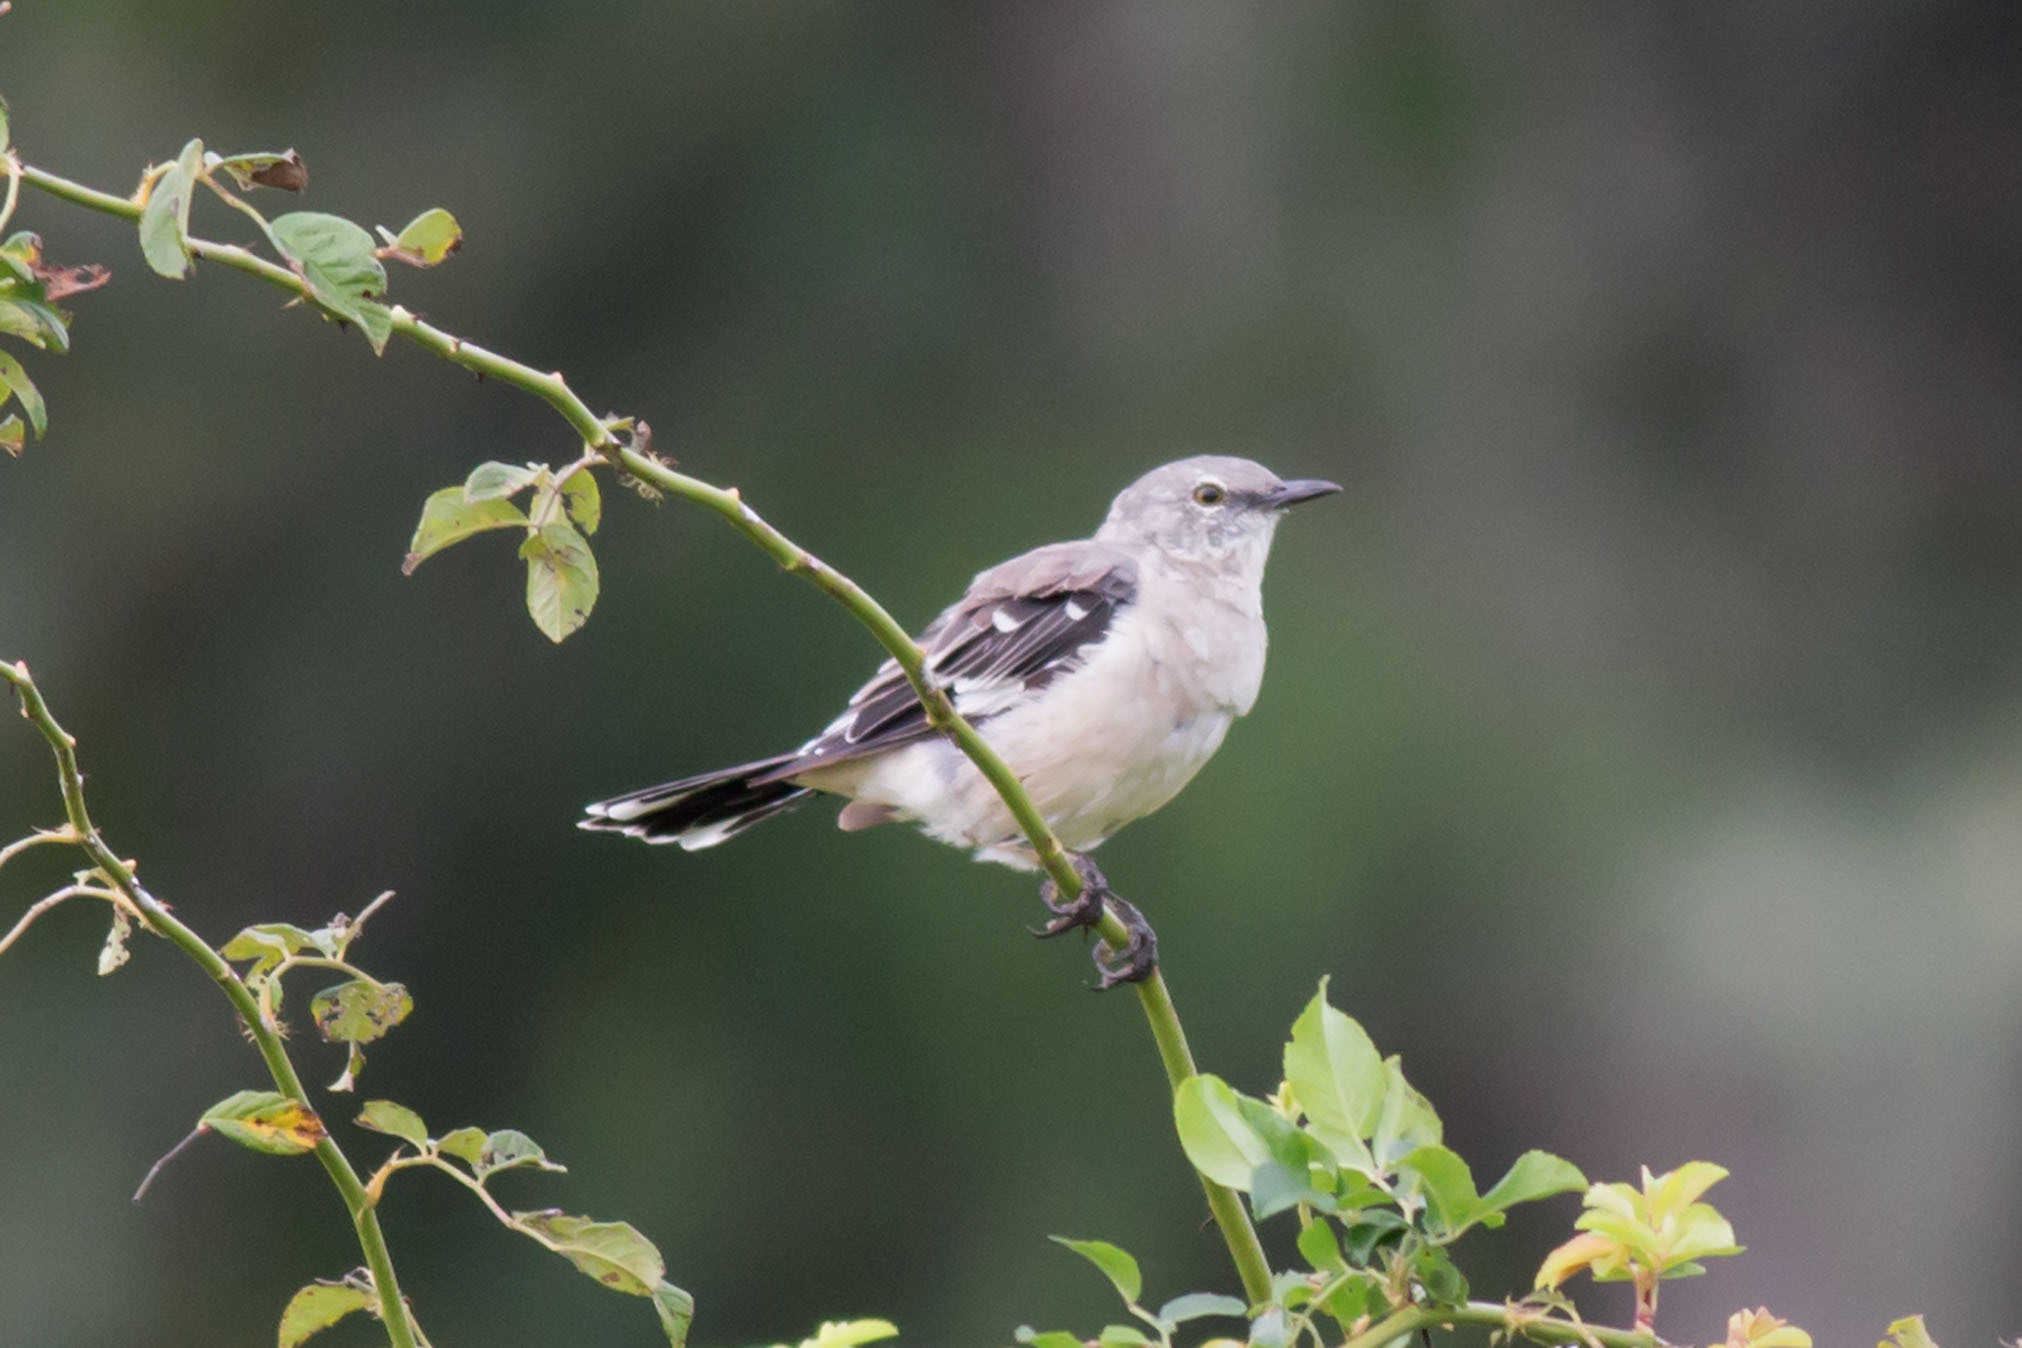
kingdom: Animalia
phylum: Chordata
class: Aves
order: Passeriformes
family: Mimidae
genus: Mimus
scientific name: Mimus polyglottos
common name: Northern mockingbird
